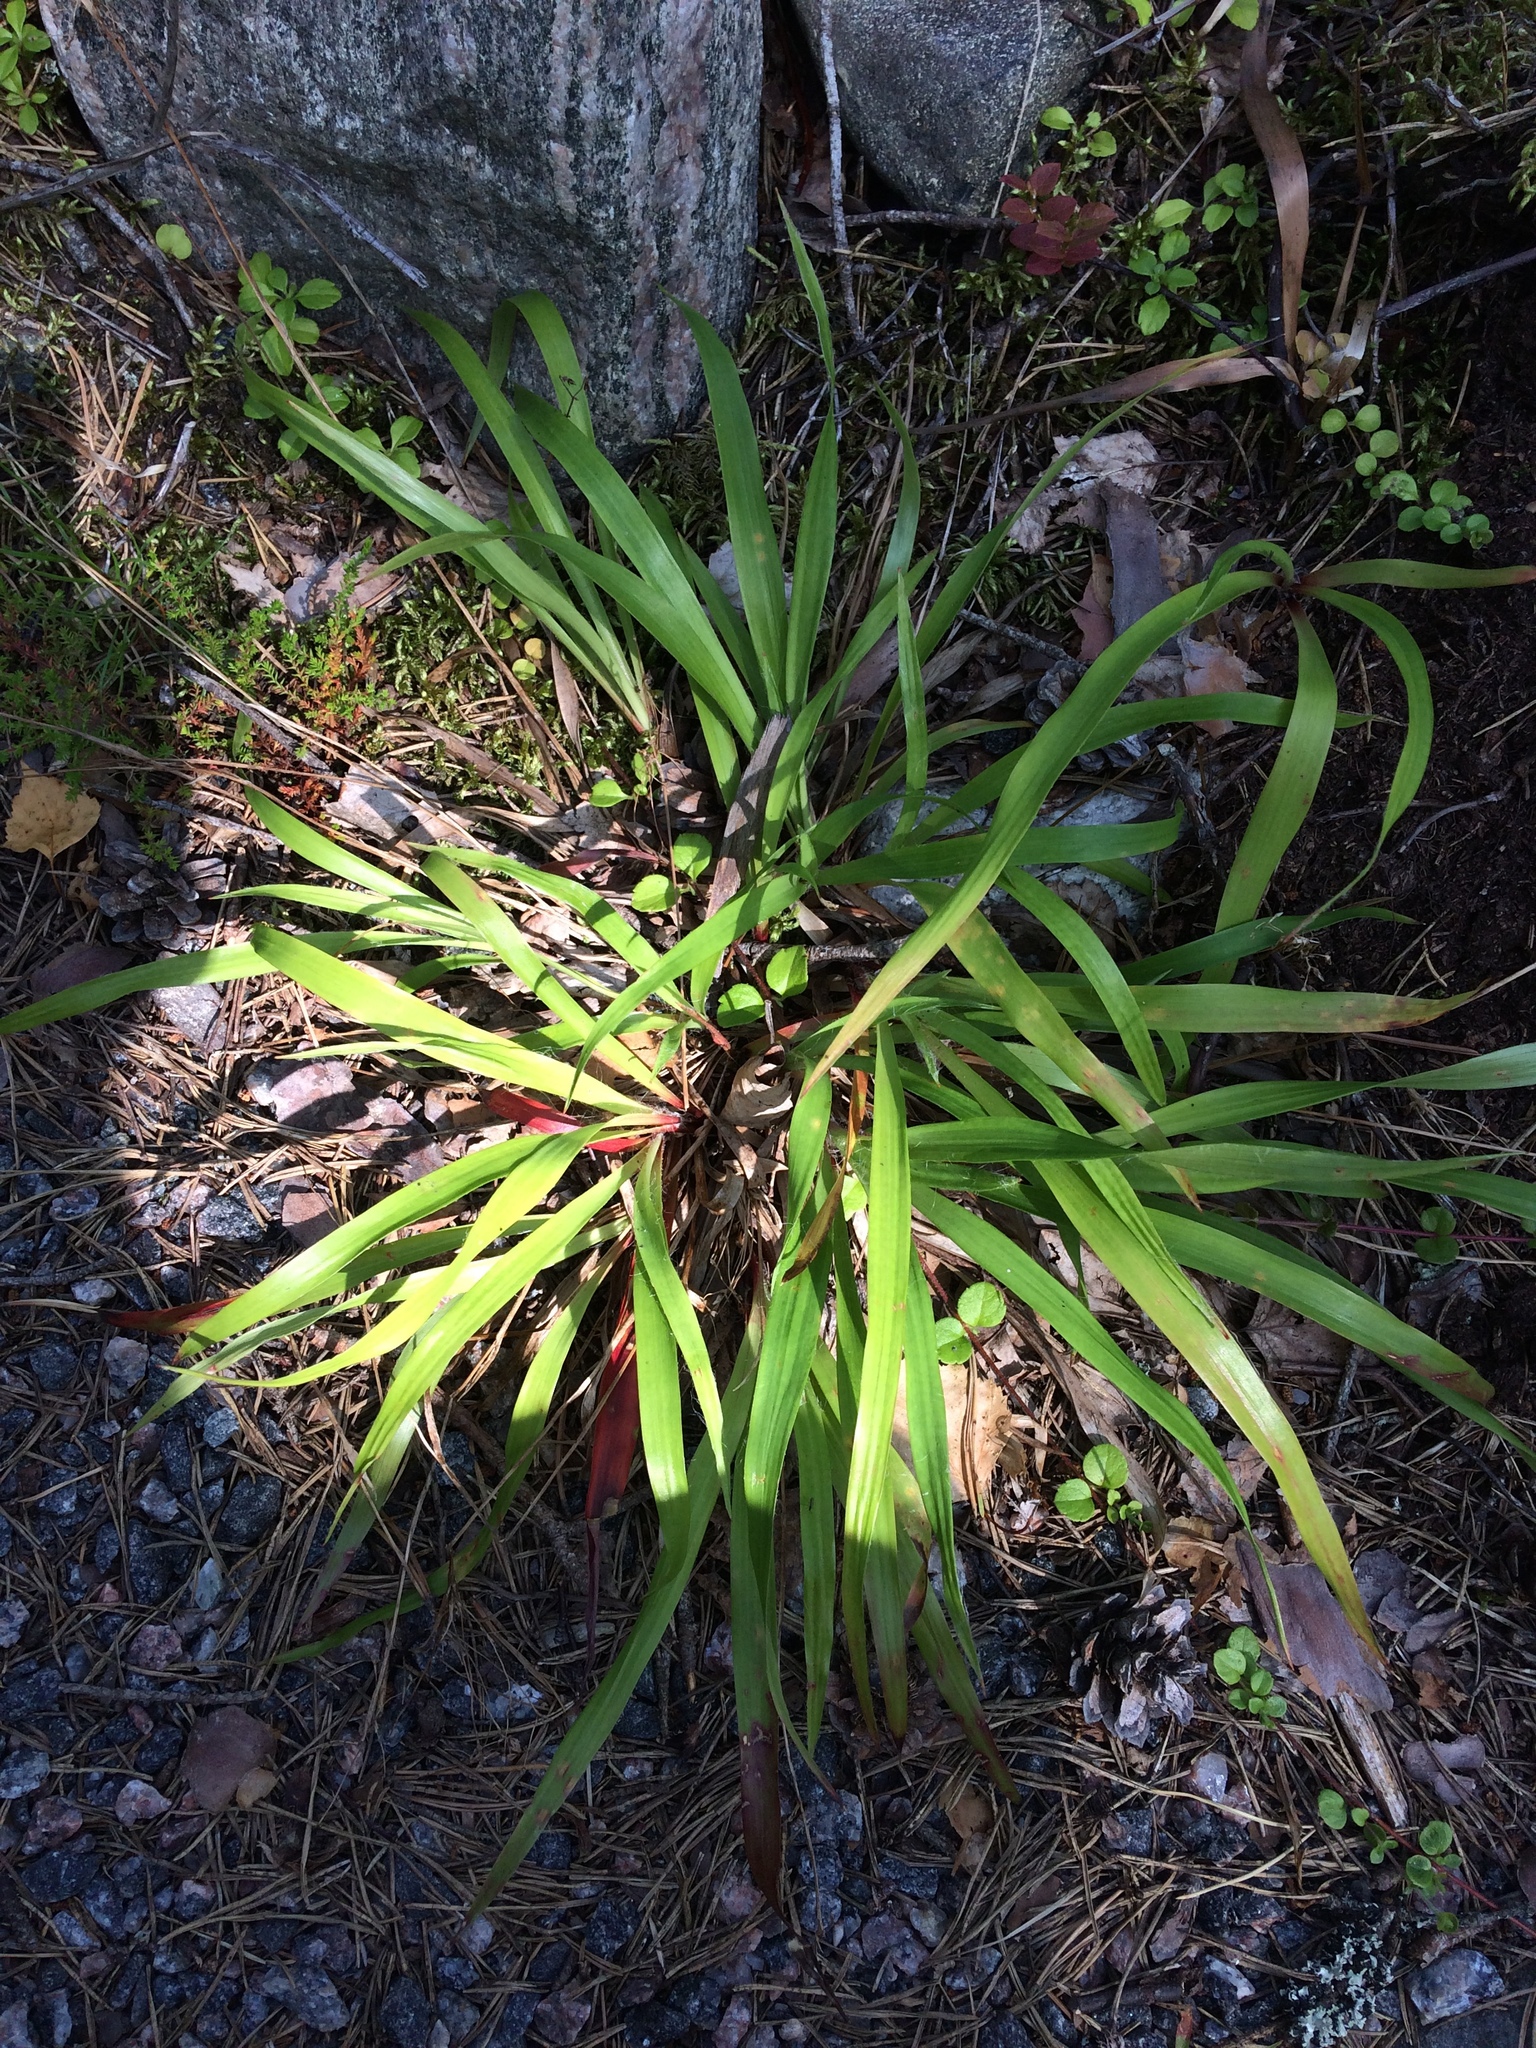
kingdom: Plantae
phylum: Tracheophyta
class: Liliopsida
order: Poales
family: Juncaceae
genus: Luzula
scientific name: Luzula pilosa
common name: Hairy wood-rush
